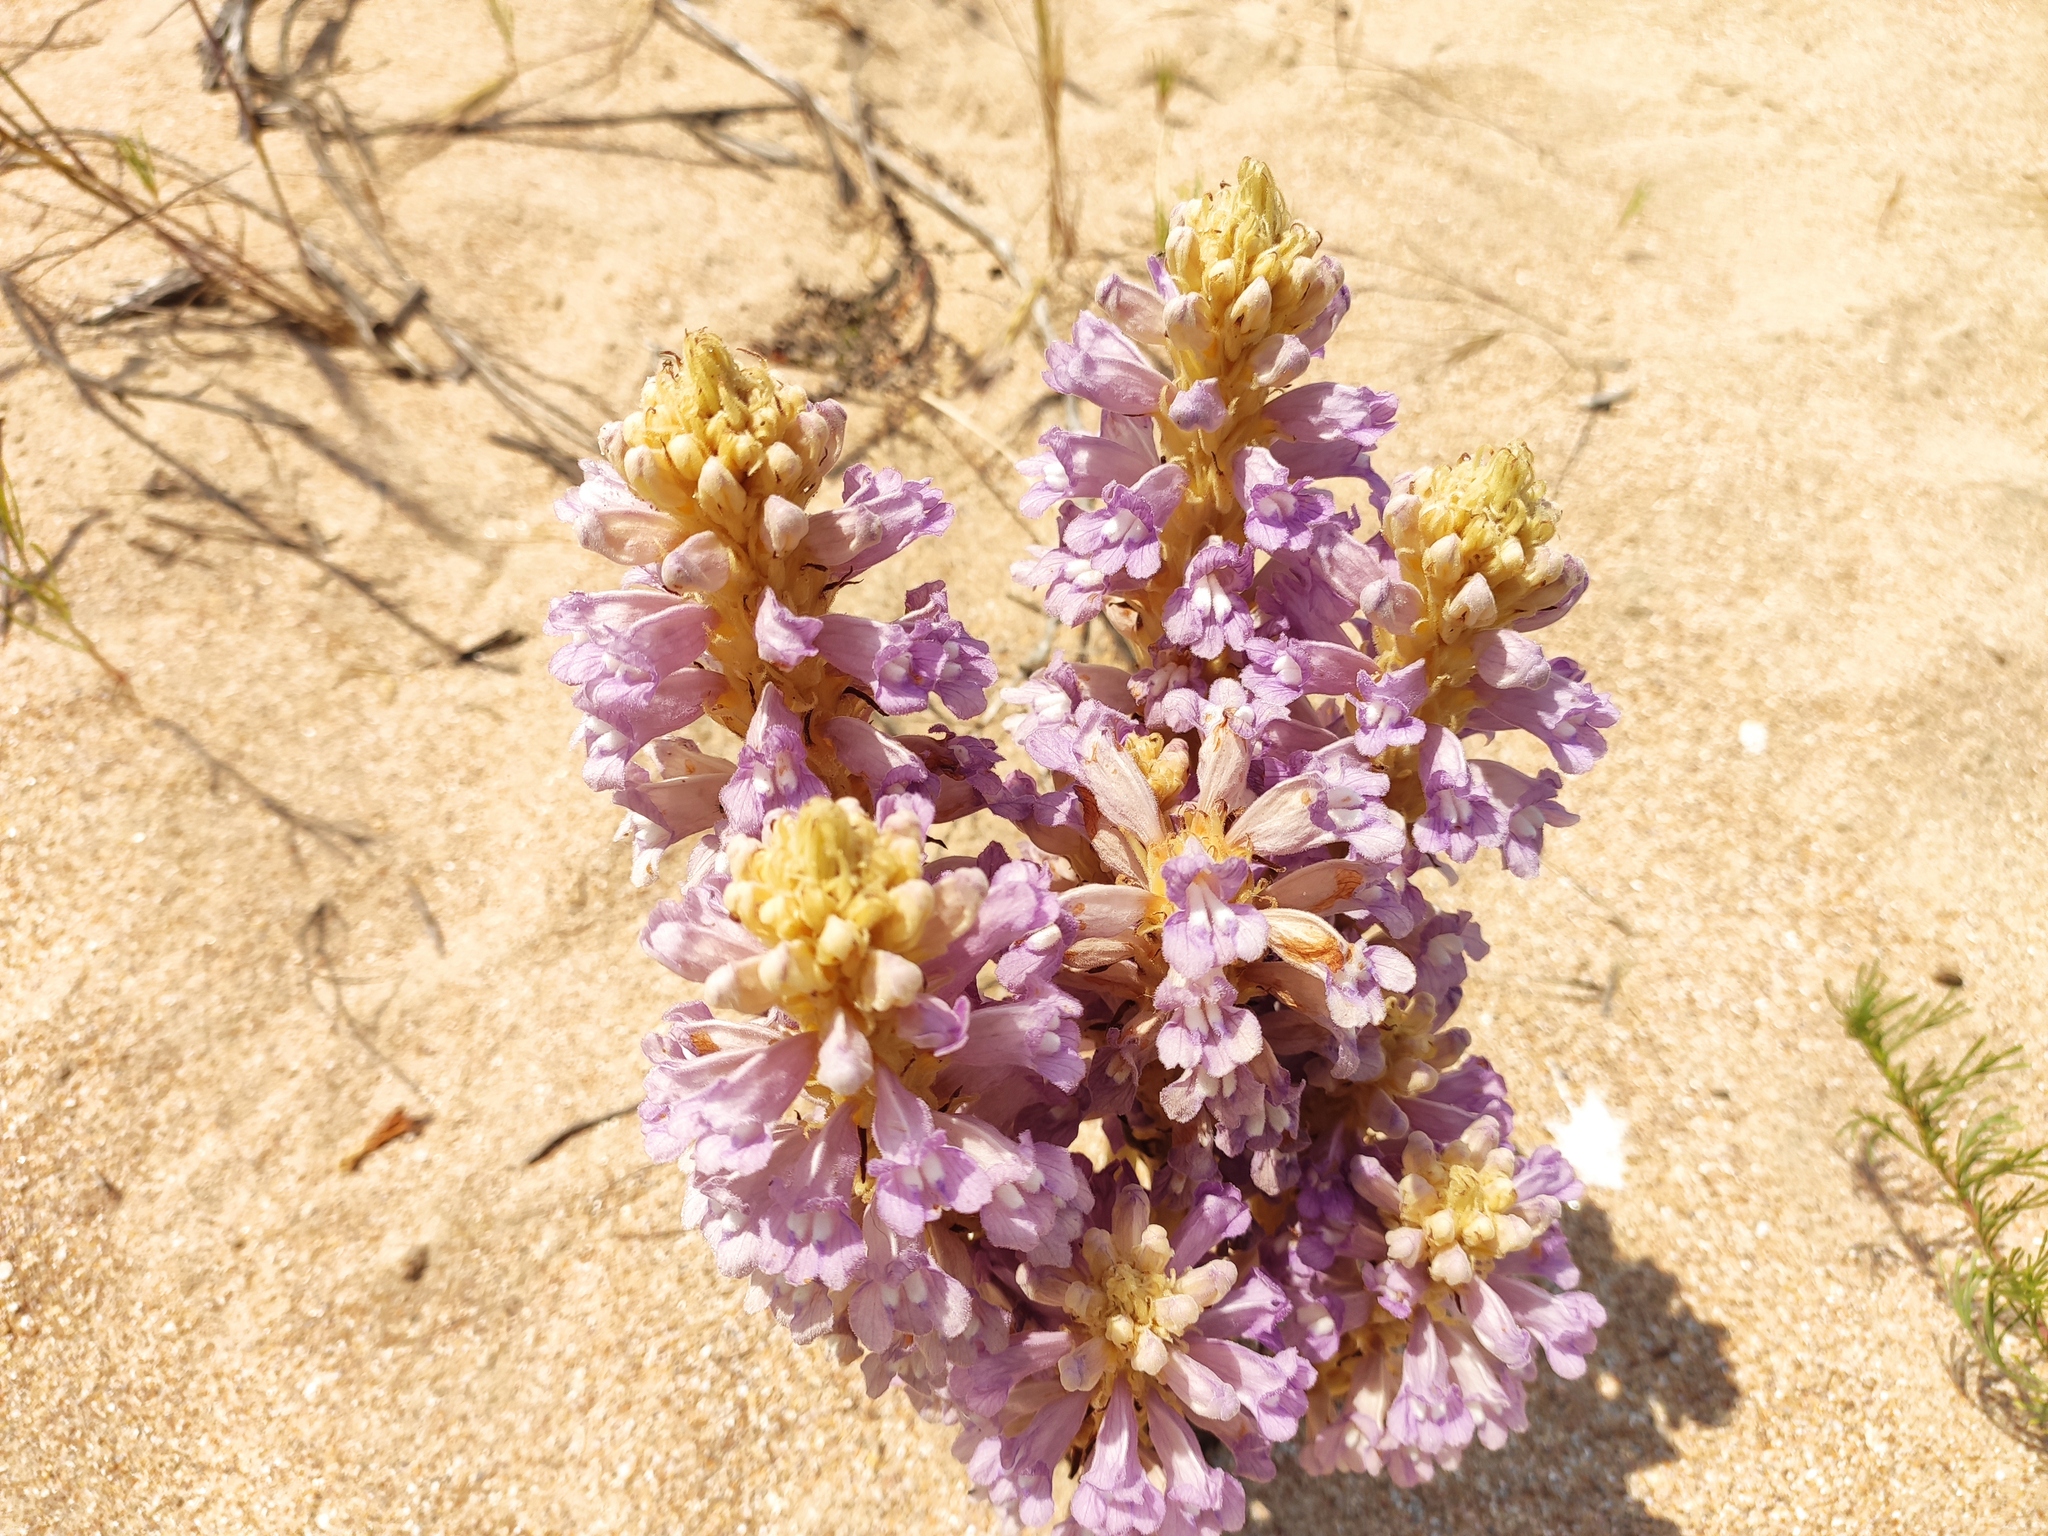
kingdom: Plantae
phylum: Tracheophyta
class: Magnoliopsida
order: Lamiales
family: Orobanchaceae
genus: Phelipanche
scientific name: Phelipanche arenaria
